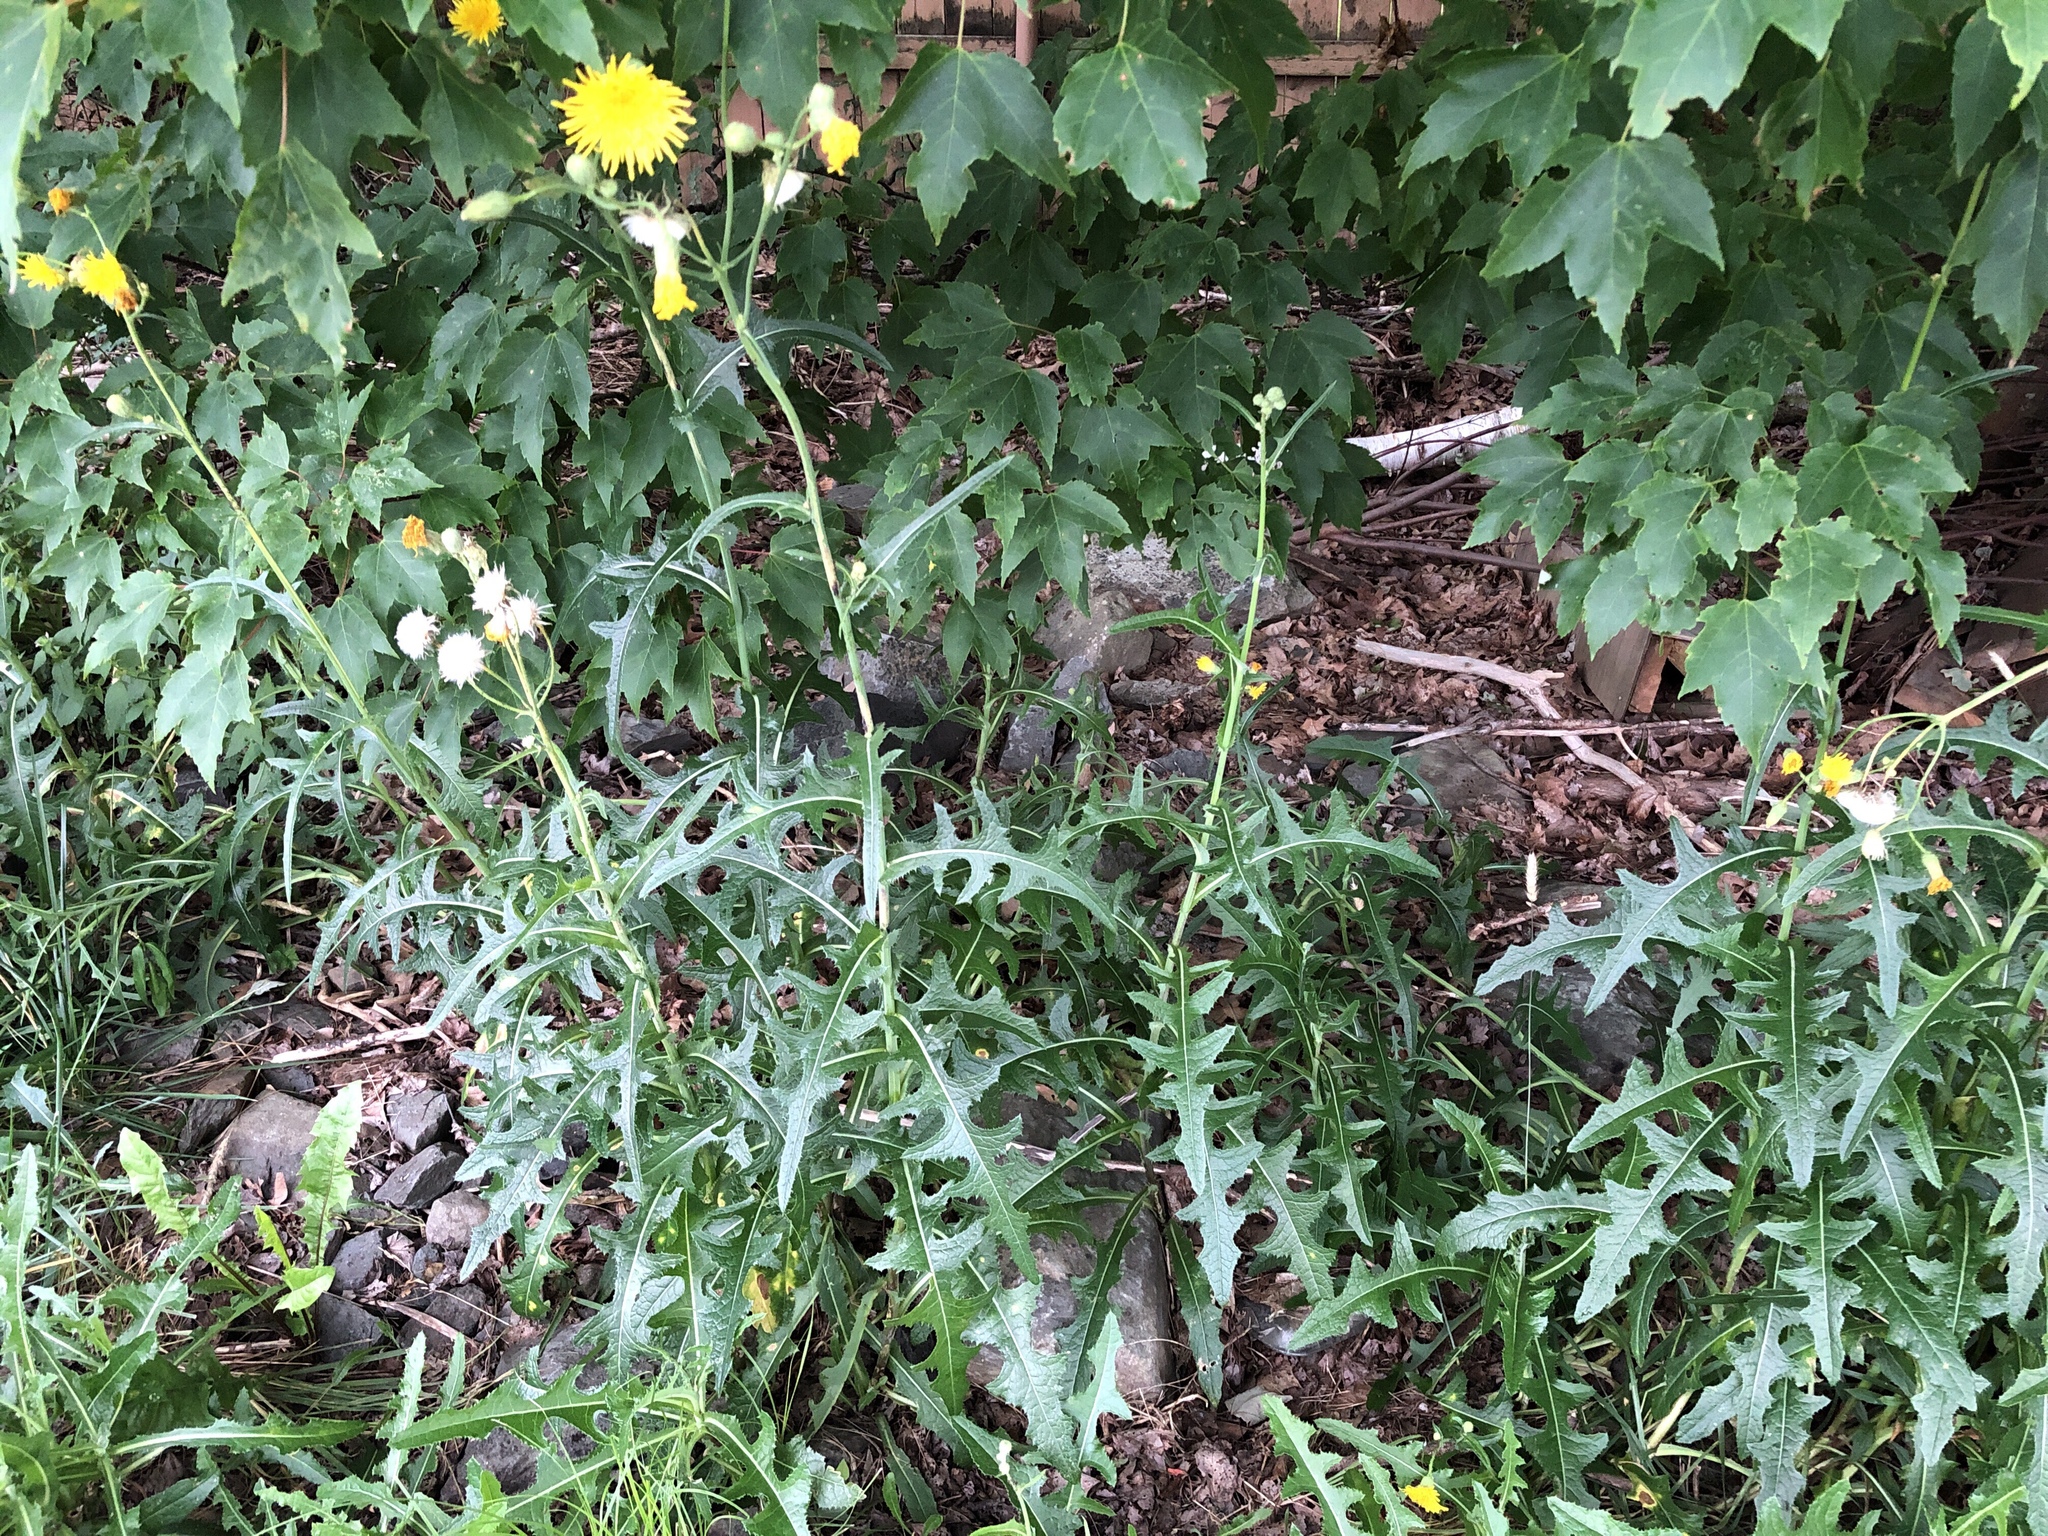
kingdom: Plantae
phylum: Tracheophyta
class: Magnoliopsida
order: Asterales
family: Asteraceae
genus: Sonchus
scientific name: Sonchus arvensis
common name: Perennial sow-thistle
